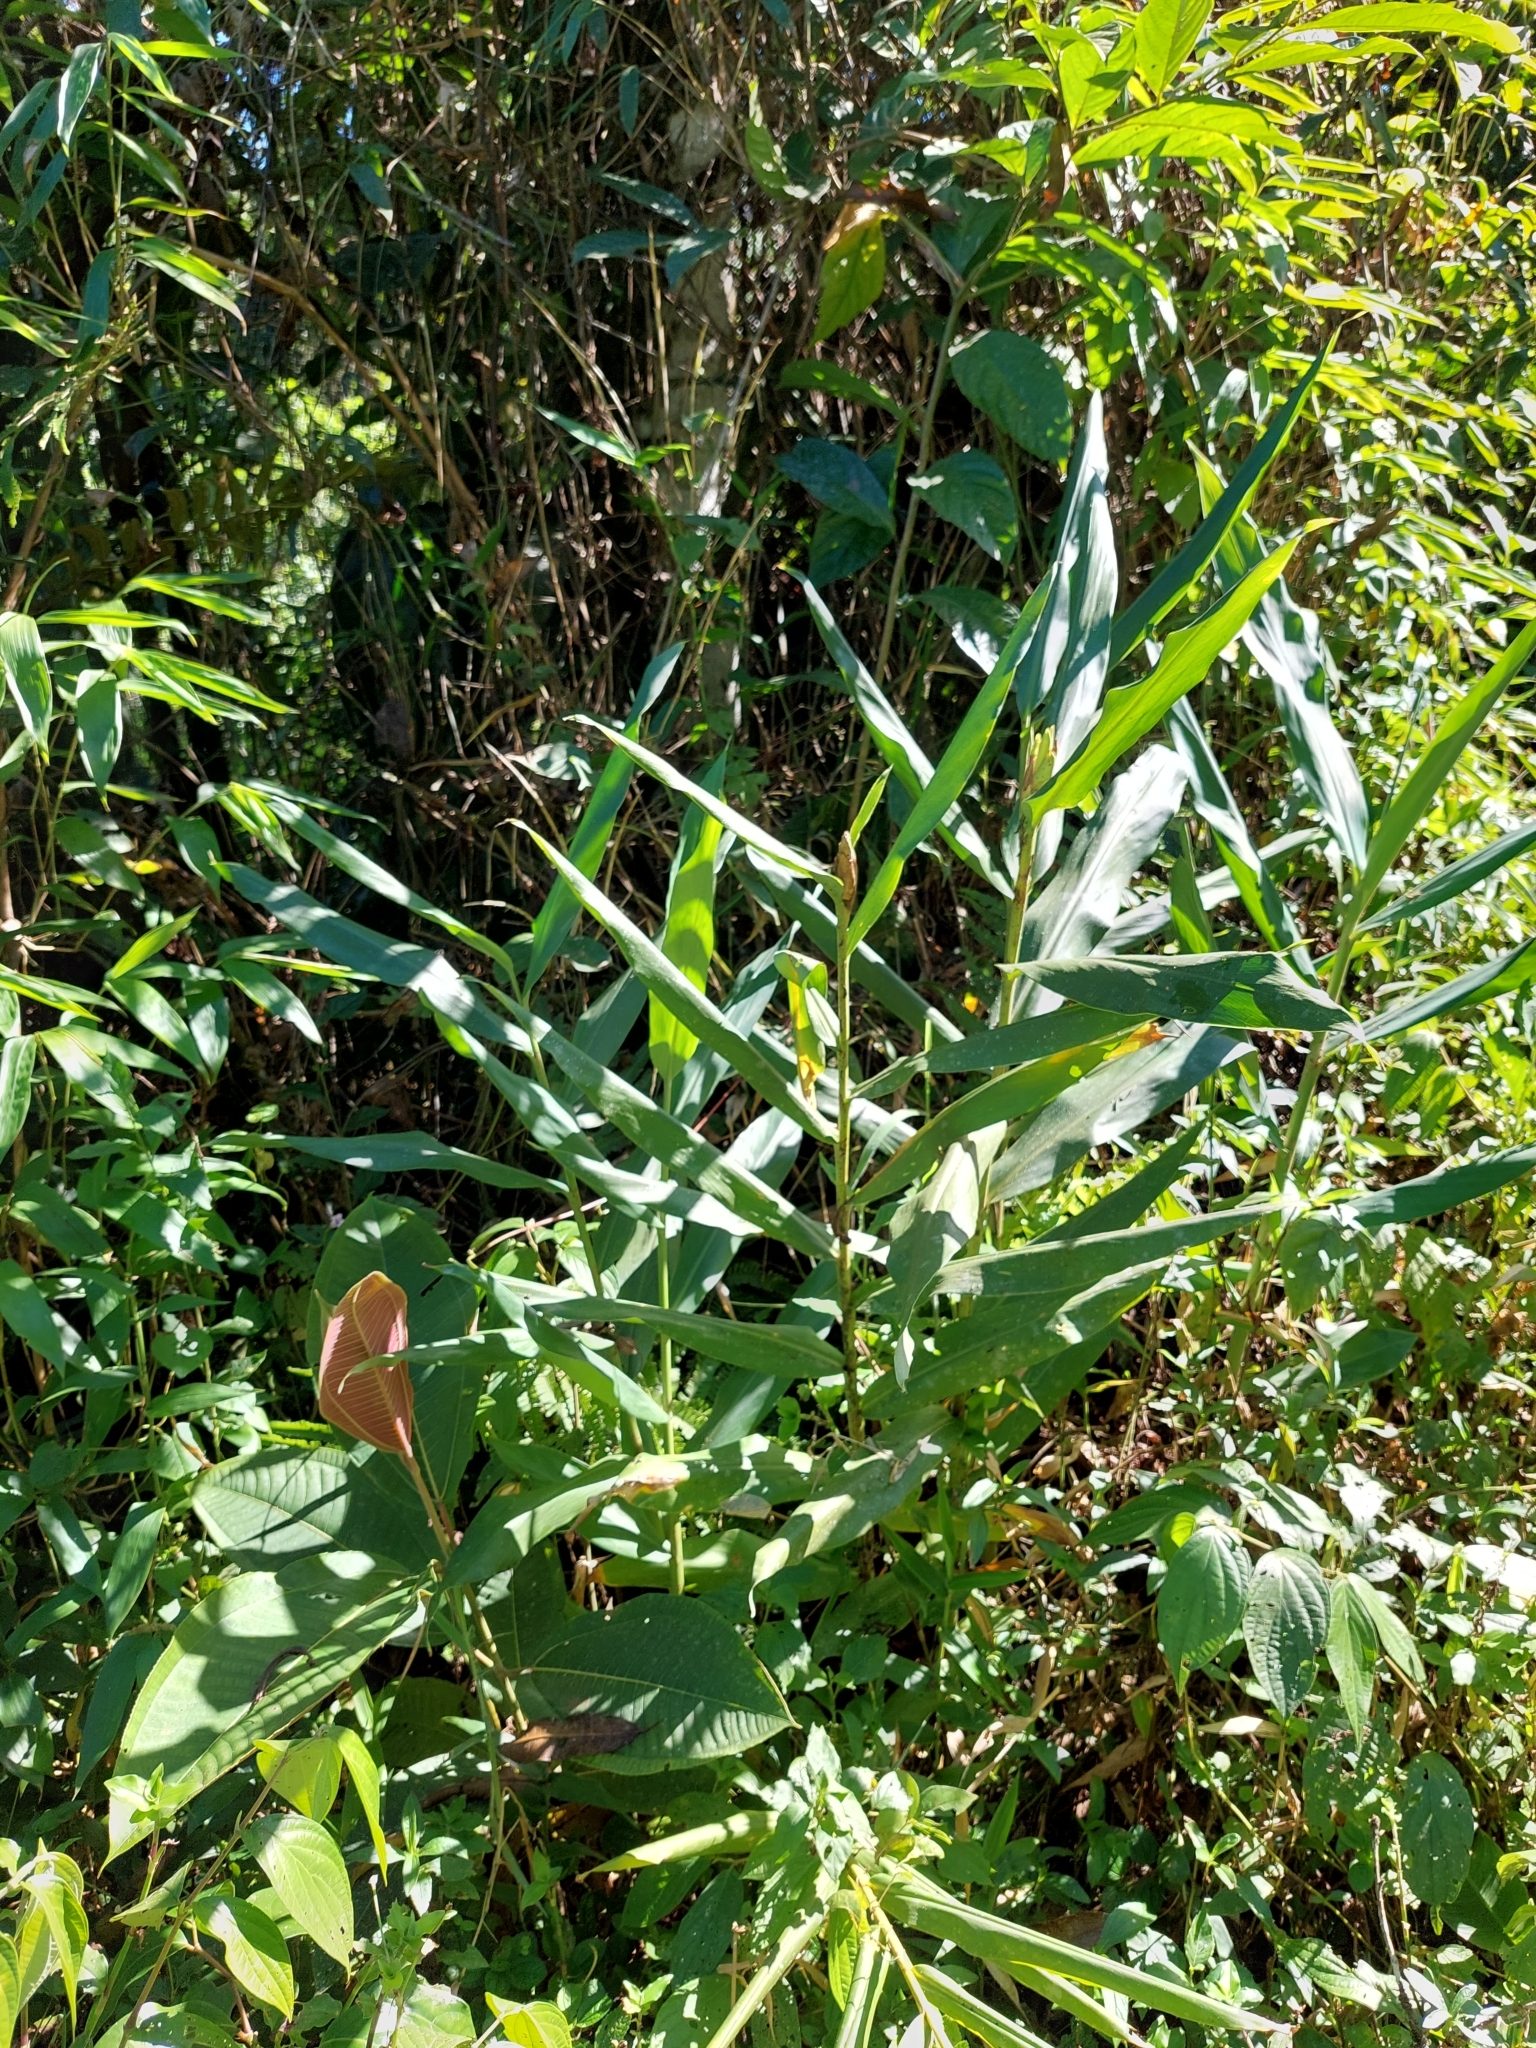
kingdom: Plantae
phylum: Tracheophyta
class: Liliopsida
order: Zingiberales
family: Zingiberaceae
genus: Hedychium
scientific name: Hedychium coronarium
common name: White garland-lily
